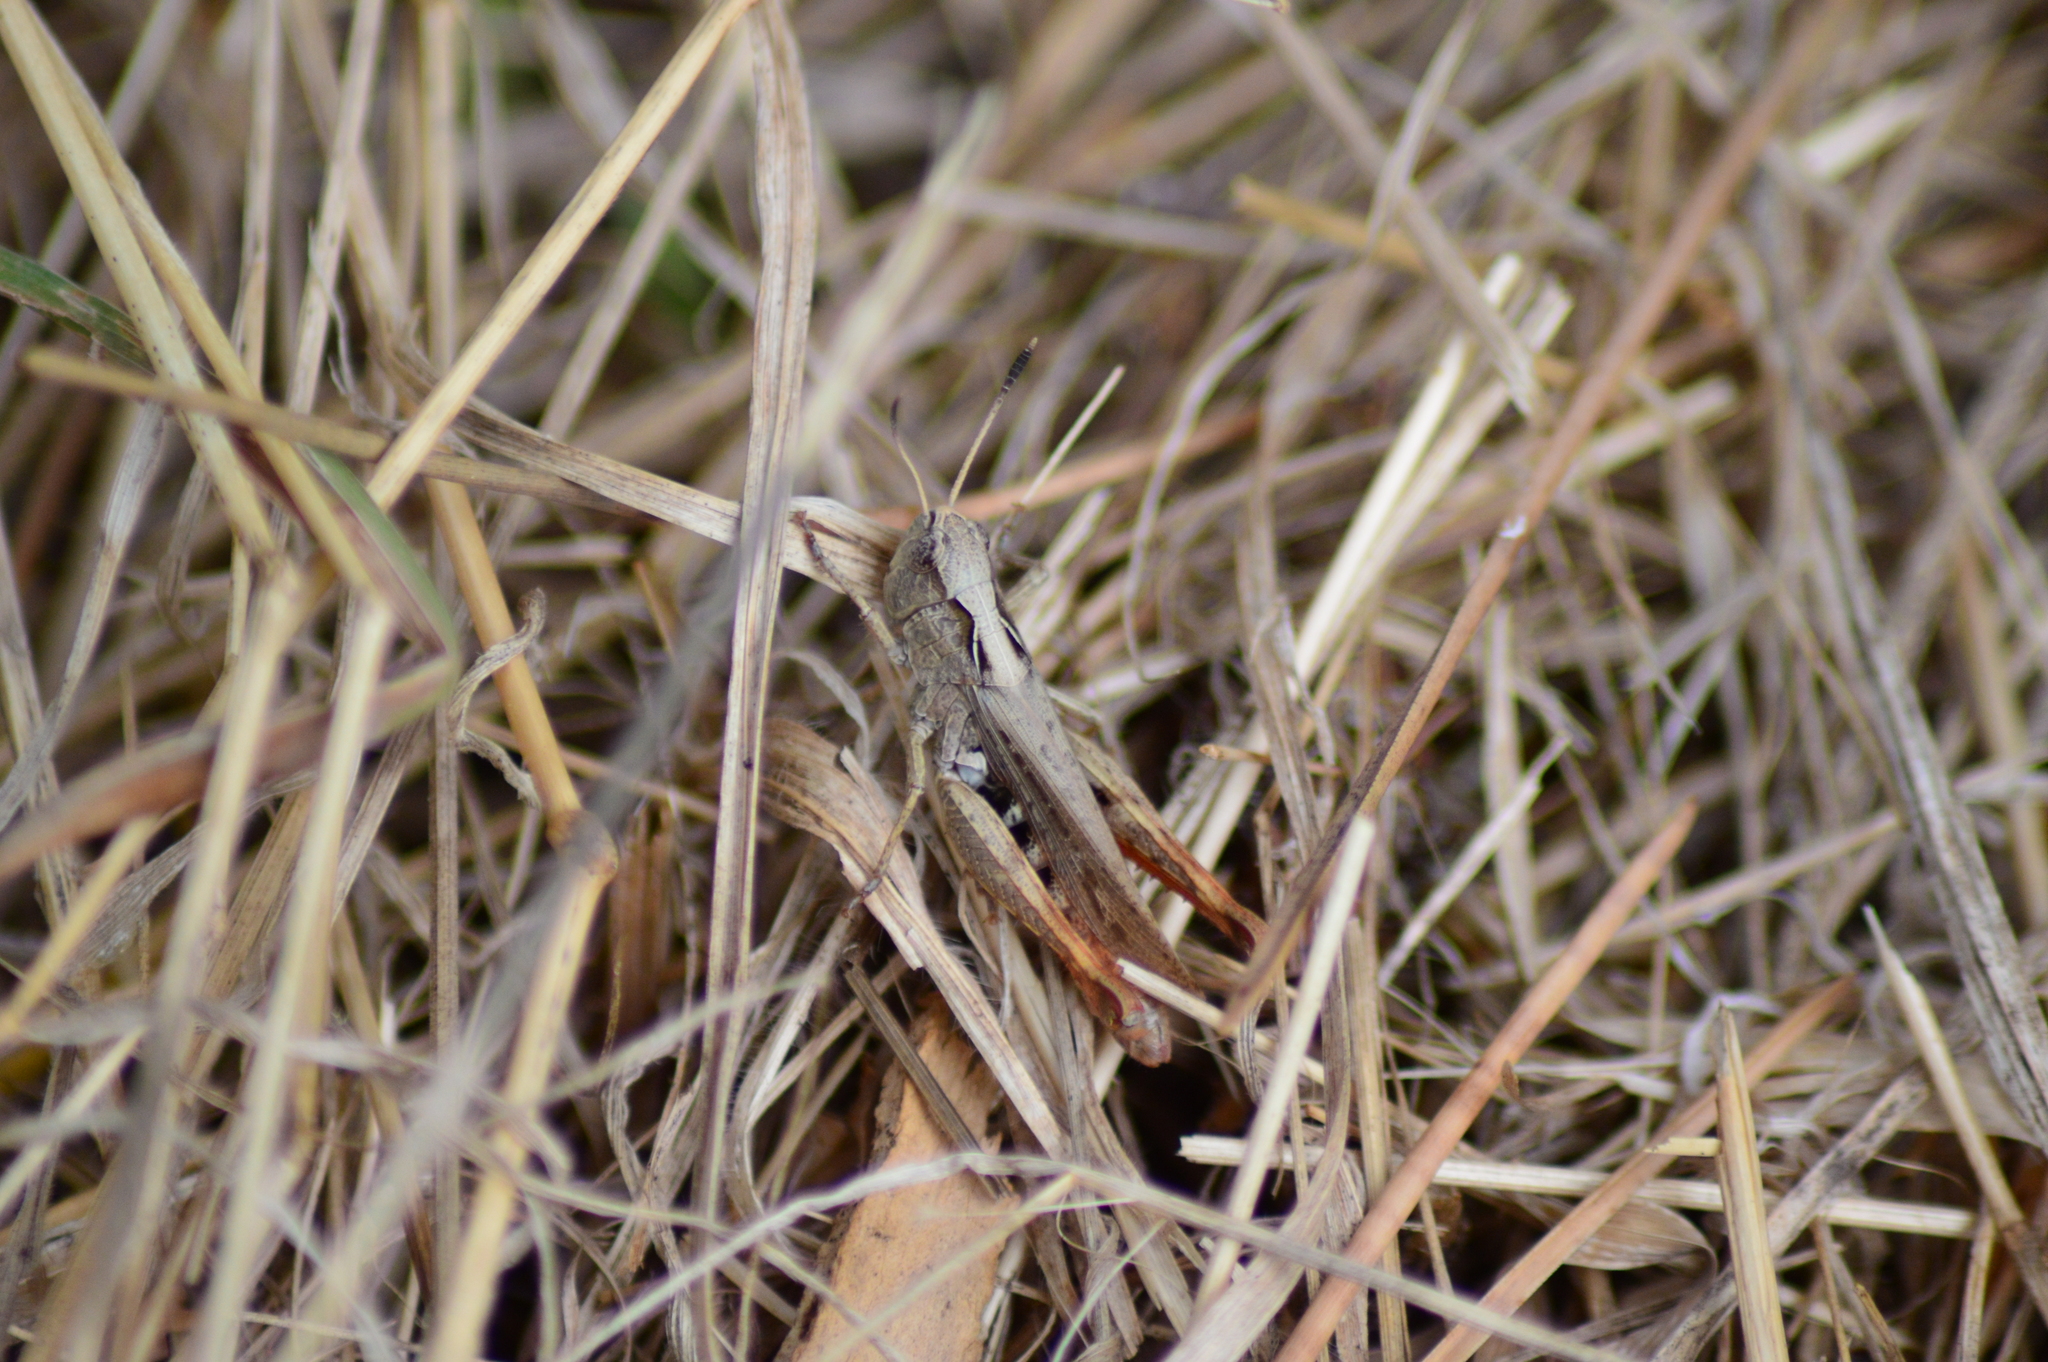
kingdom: Animalia
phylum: Arthropoda
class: Insecta
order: Orthoptera
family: Acrididae
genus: Gomphocerippus
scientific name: Gomphocerippus rufus
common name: Rufous grasshopper
